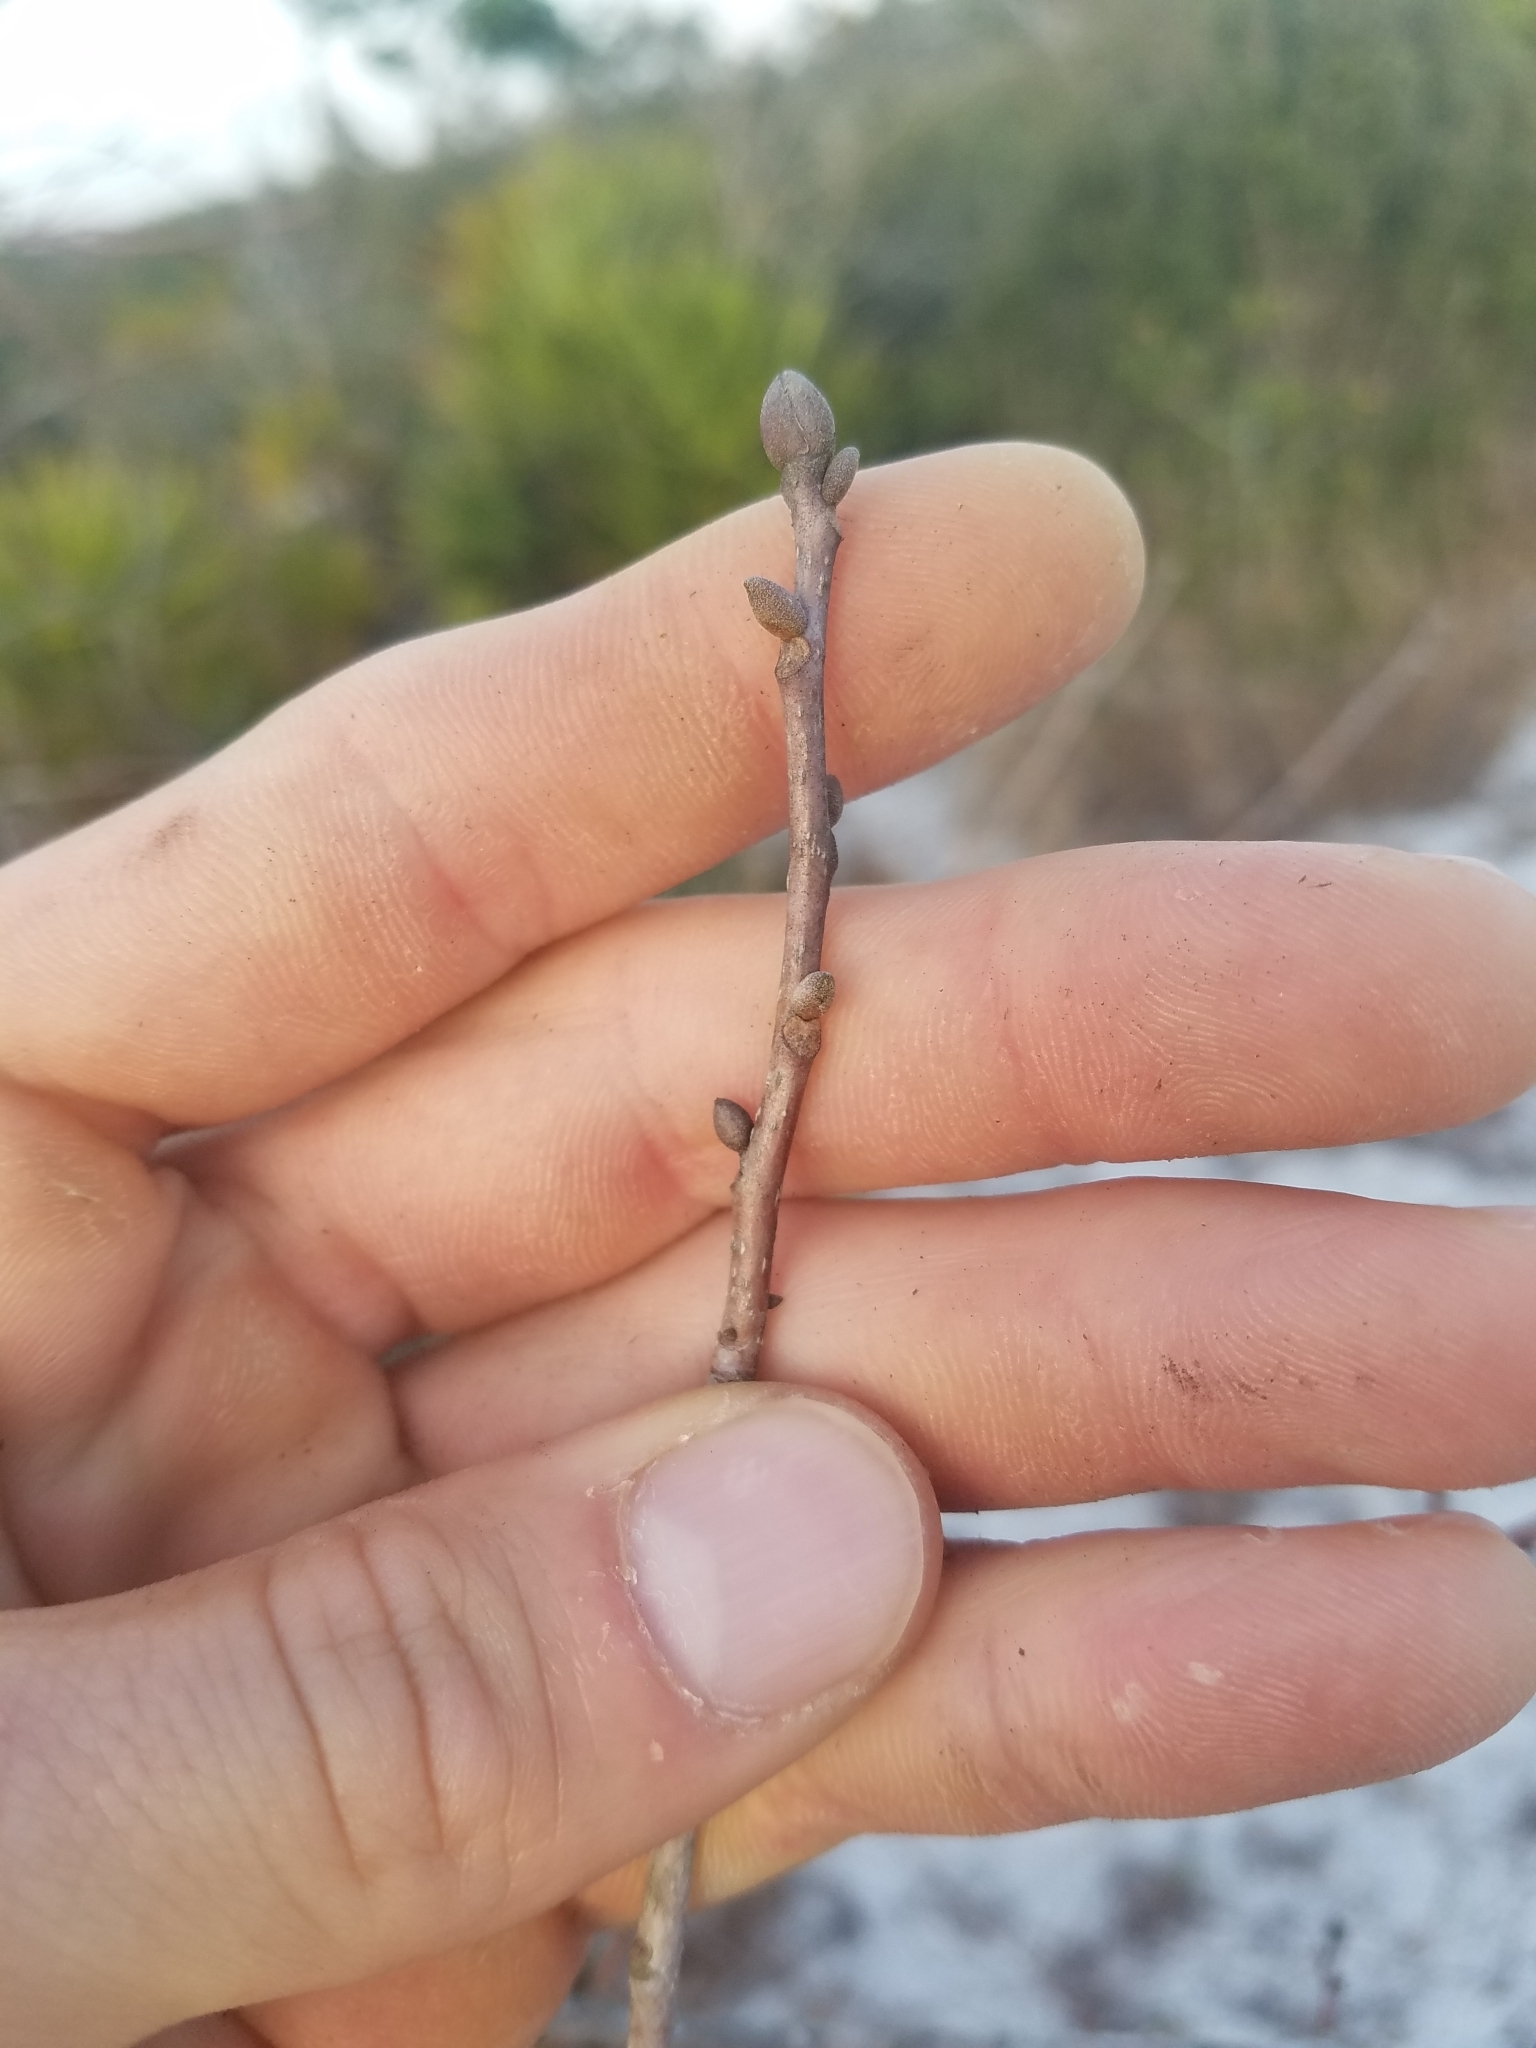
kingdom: Plantae
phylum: Tracheophyta
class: Magnoliopsida
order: Fagales
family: Juglandaceae
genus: Carya
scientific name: Carya floridana
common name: Scrub hickory
